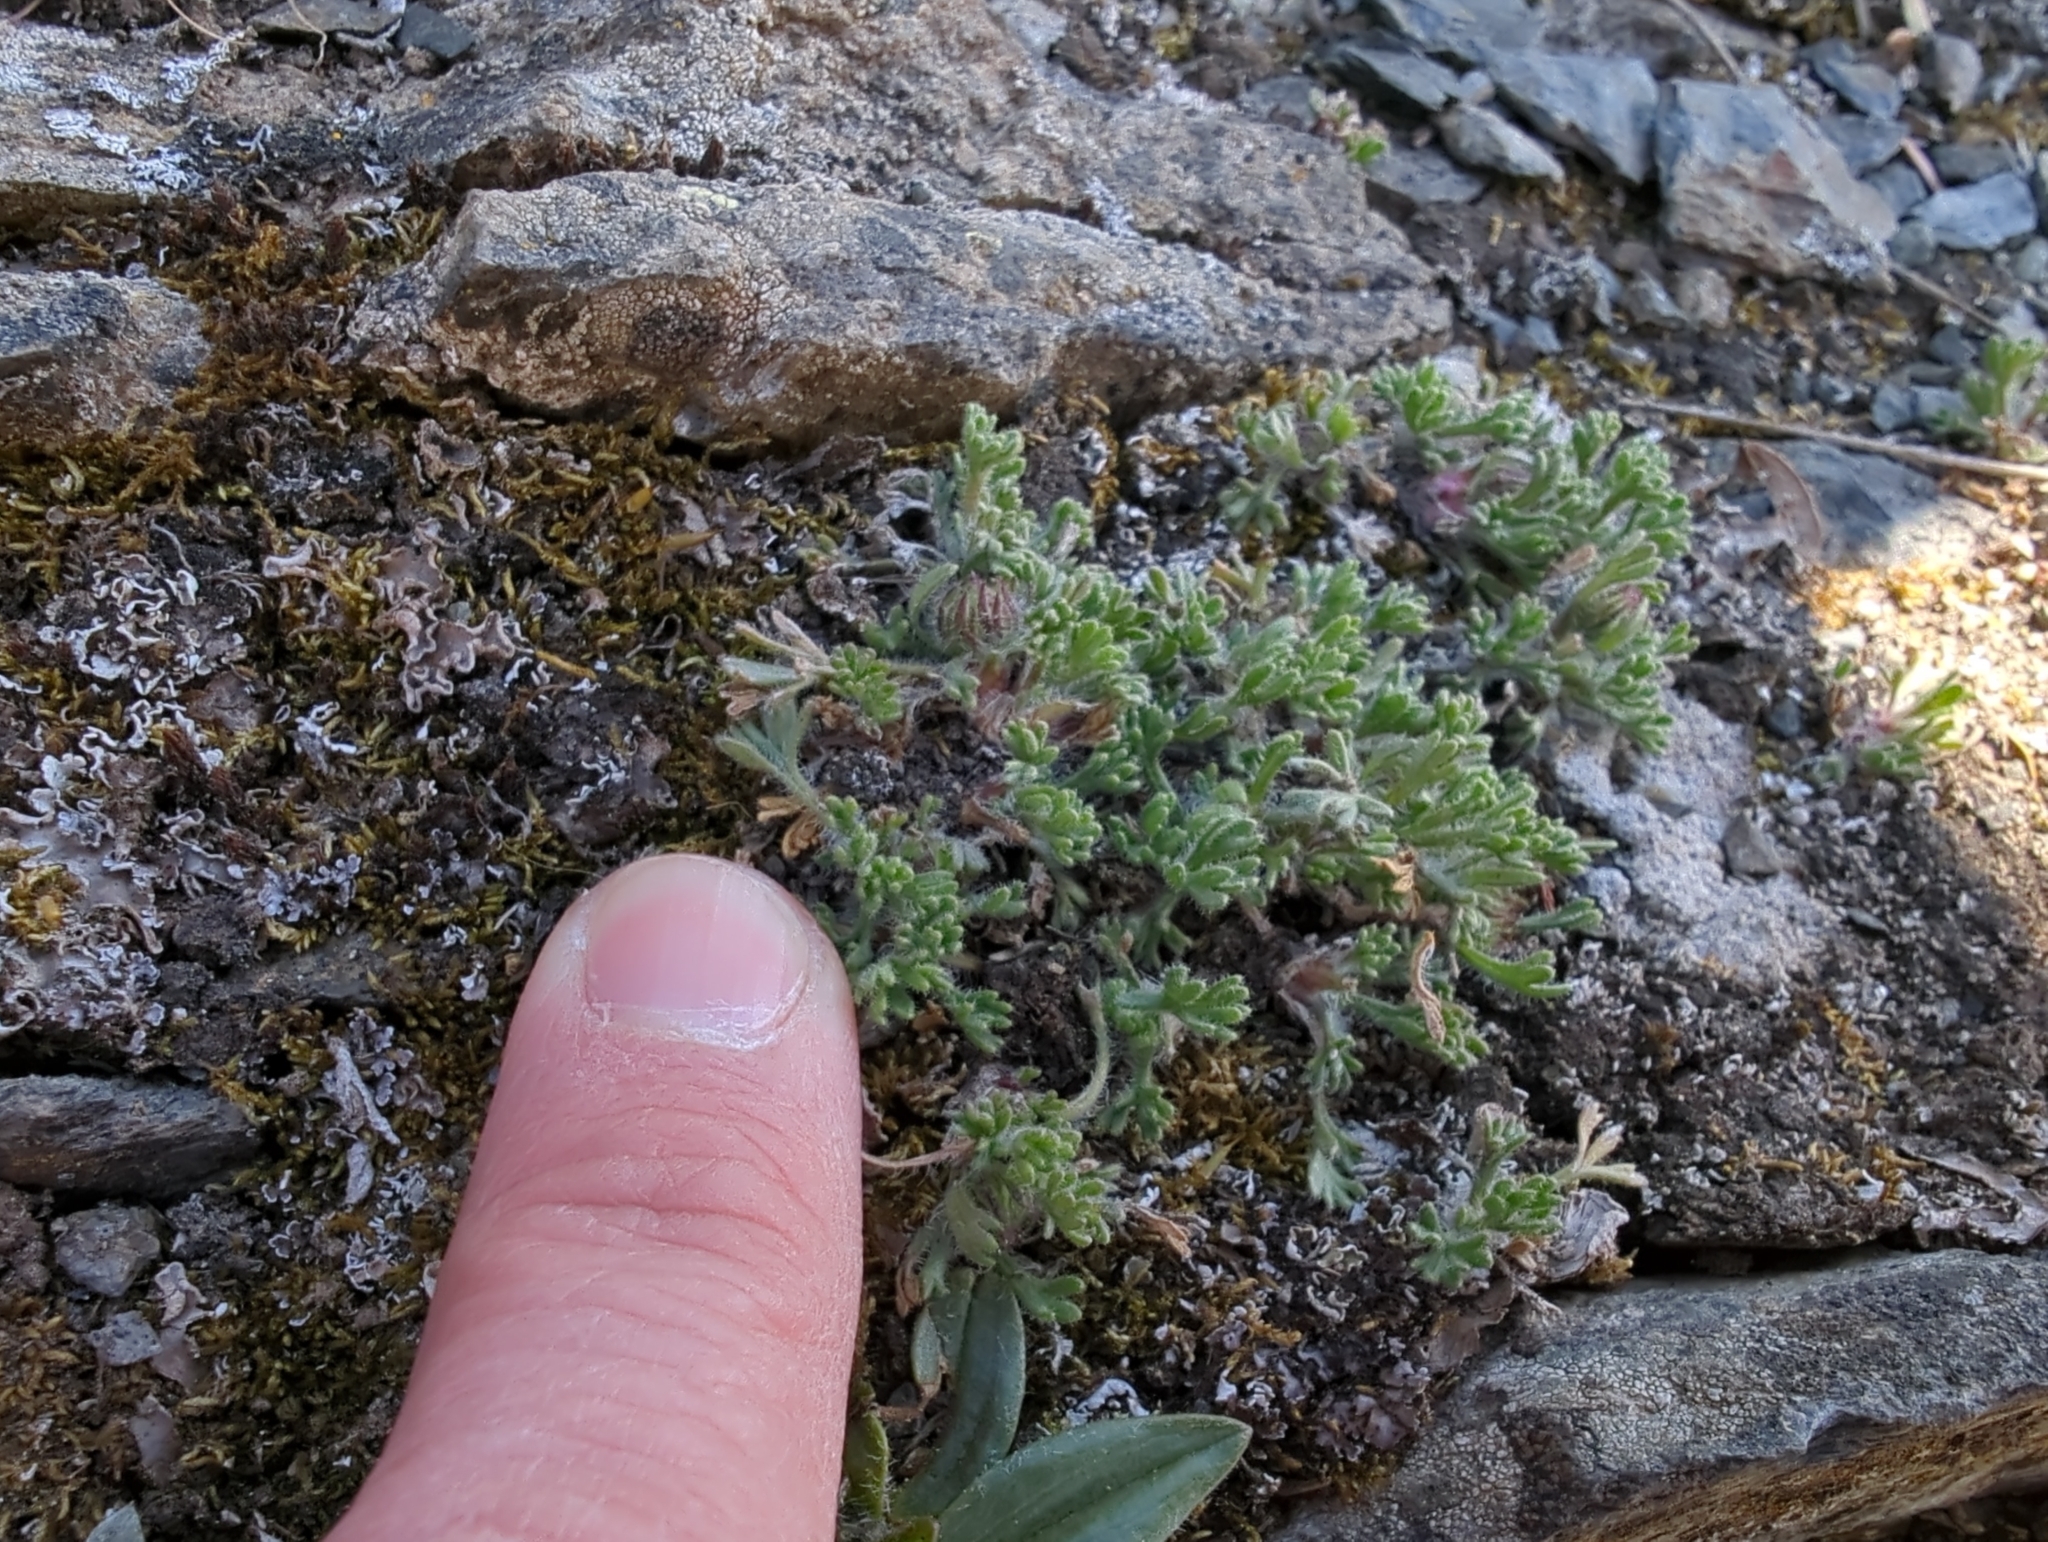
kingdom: Plantae
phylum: Tracheophyta
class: Magnoliopsida
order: Asterales
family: Asteraceae
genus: Erigeron
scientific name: Erigeron compositus
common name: Dwarf mountain fleabane
